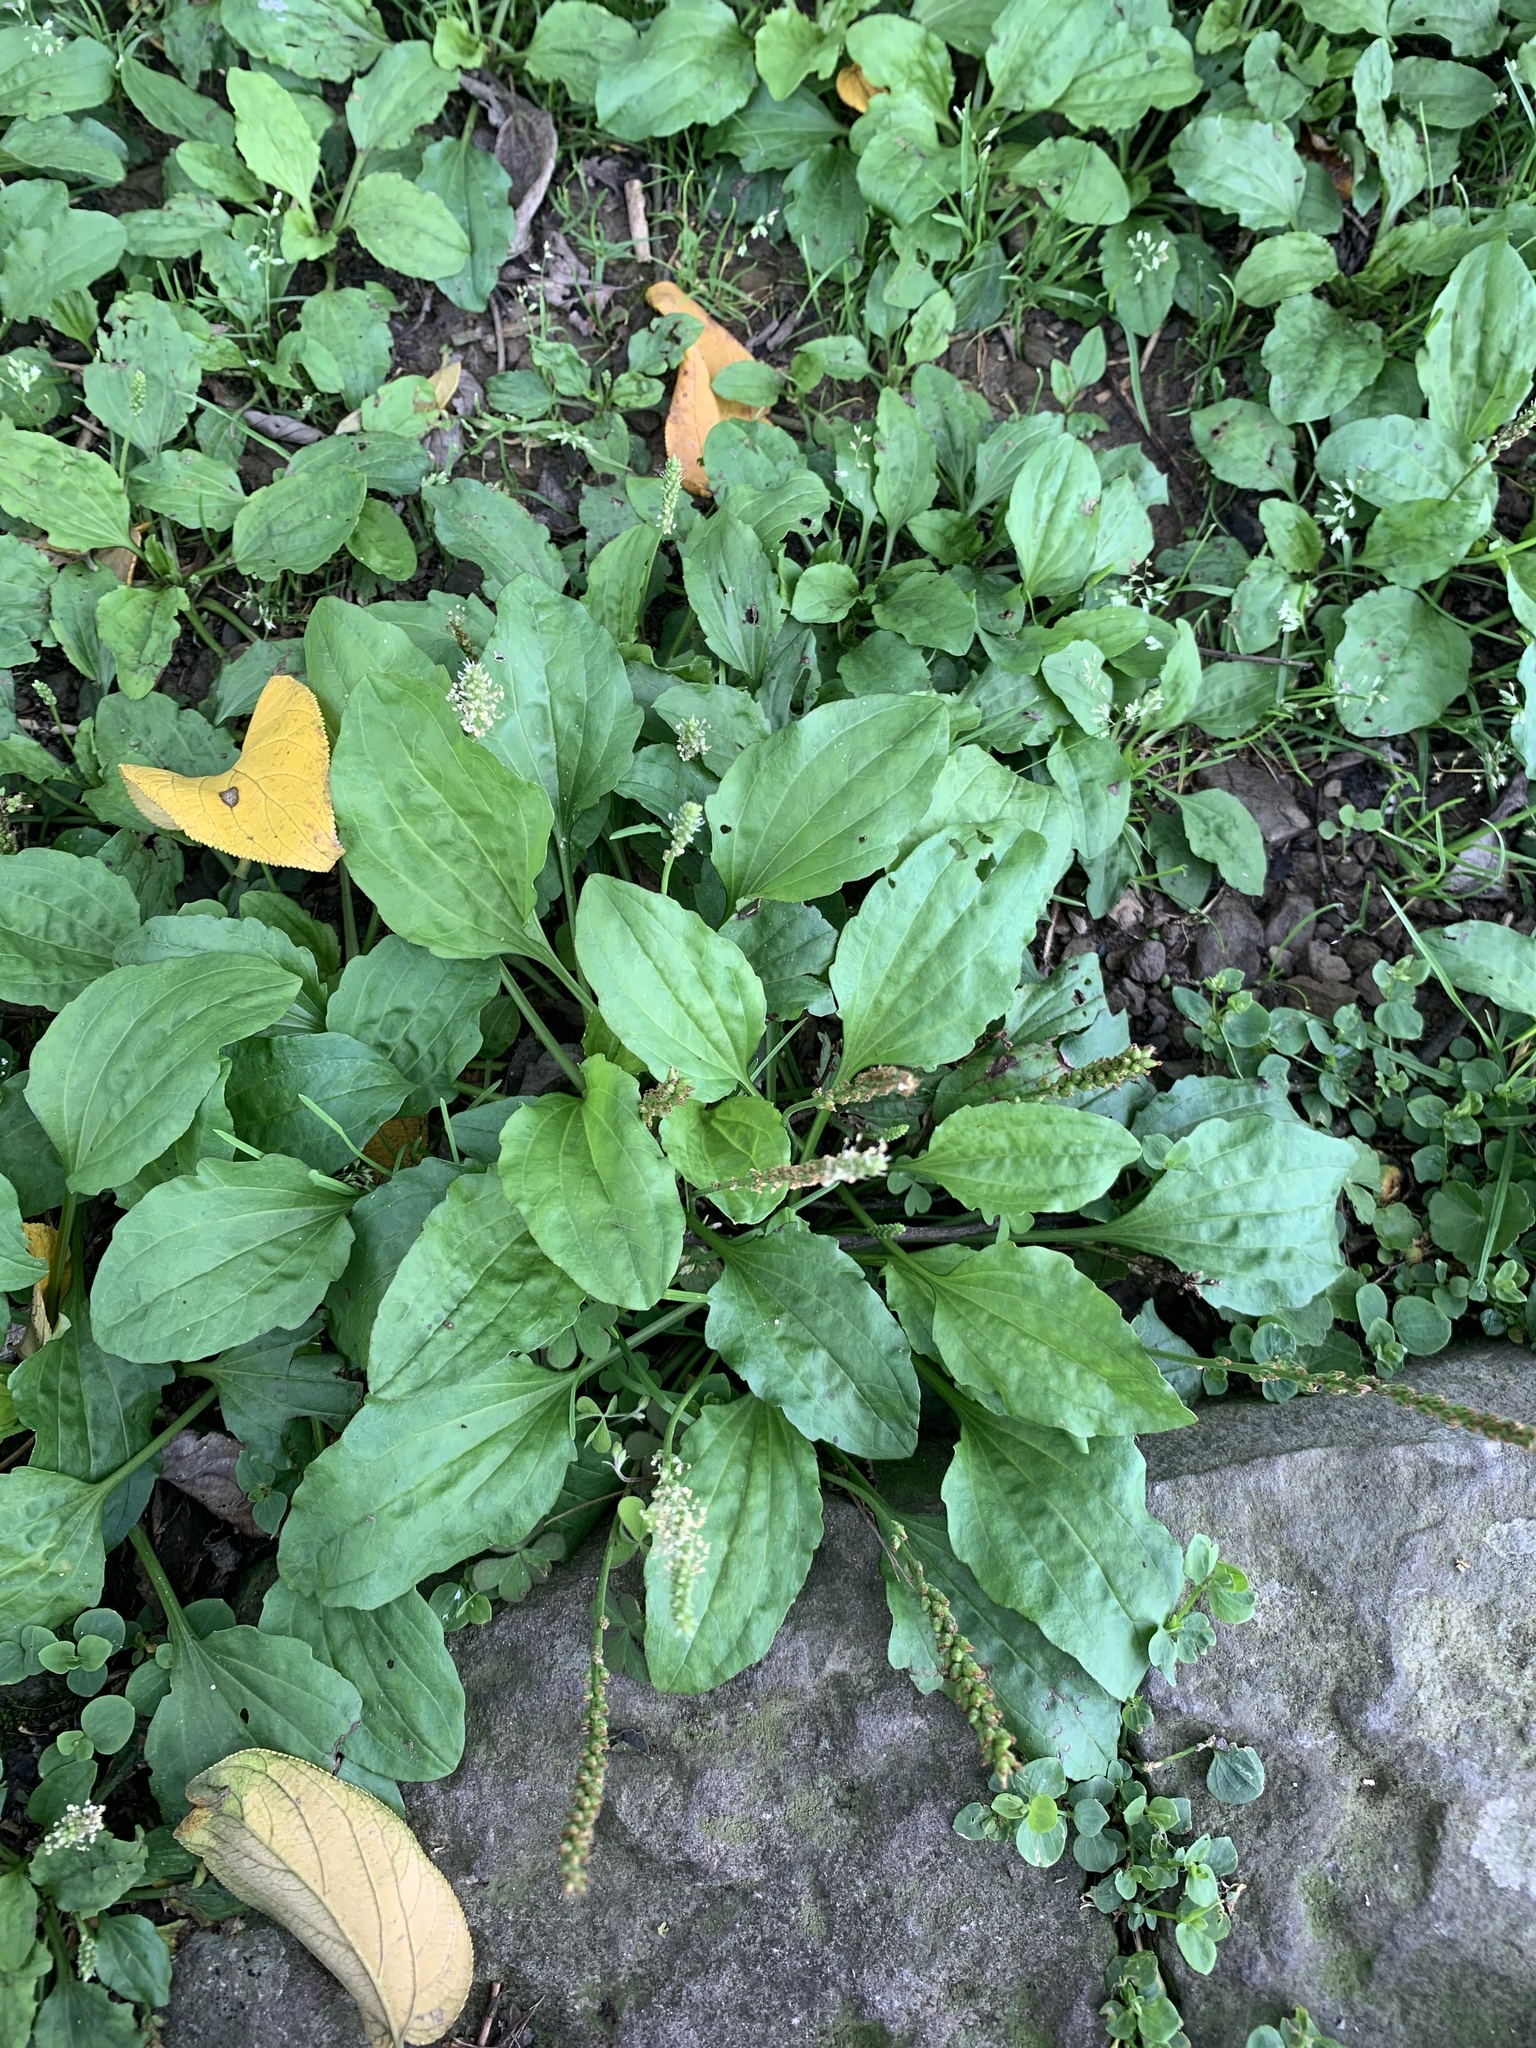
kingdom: Plantae
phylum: Tracheophyta
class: Magnoliopsida
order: Lamiales
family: Plantaginaceae
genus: Plantago
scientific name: Plantago asiatica
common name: Psyllium
